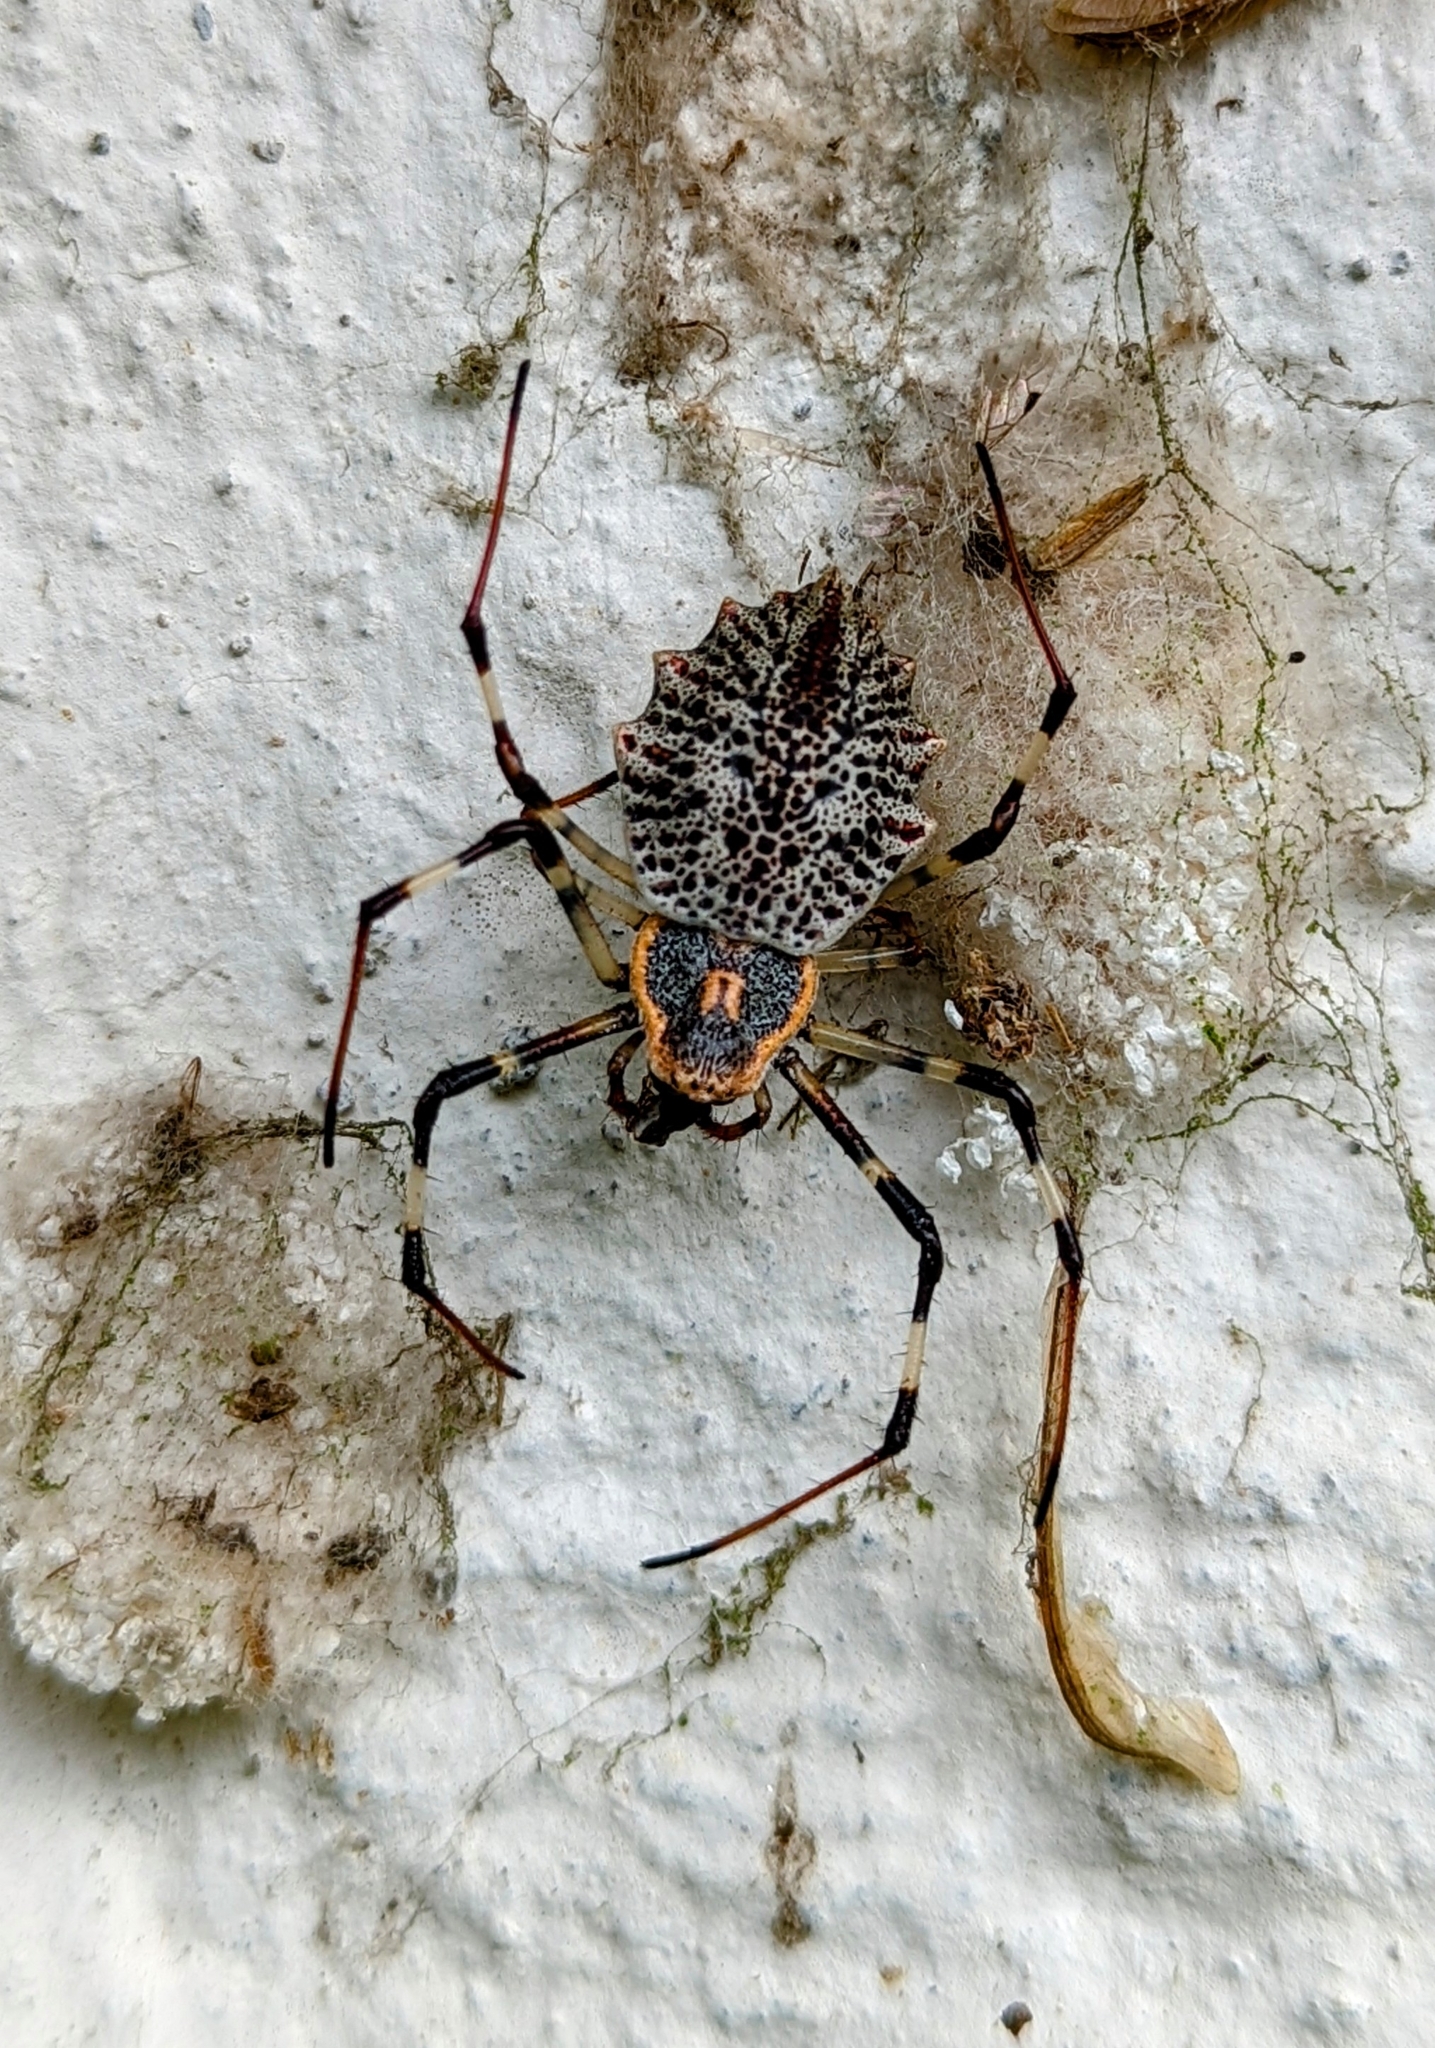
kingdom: Animalia
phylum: Arthropoda
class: Arachnida
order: Araneae
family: Araneidae
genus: Herennia
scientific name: Herennia multipuncta
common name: Spotted coin spider
